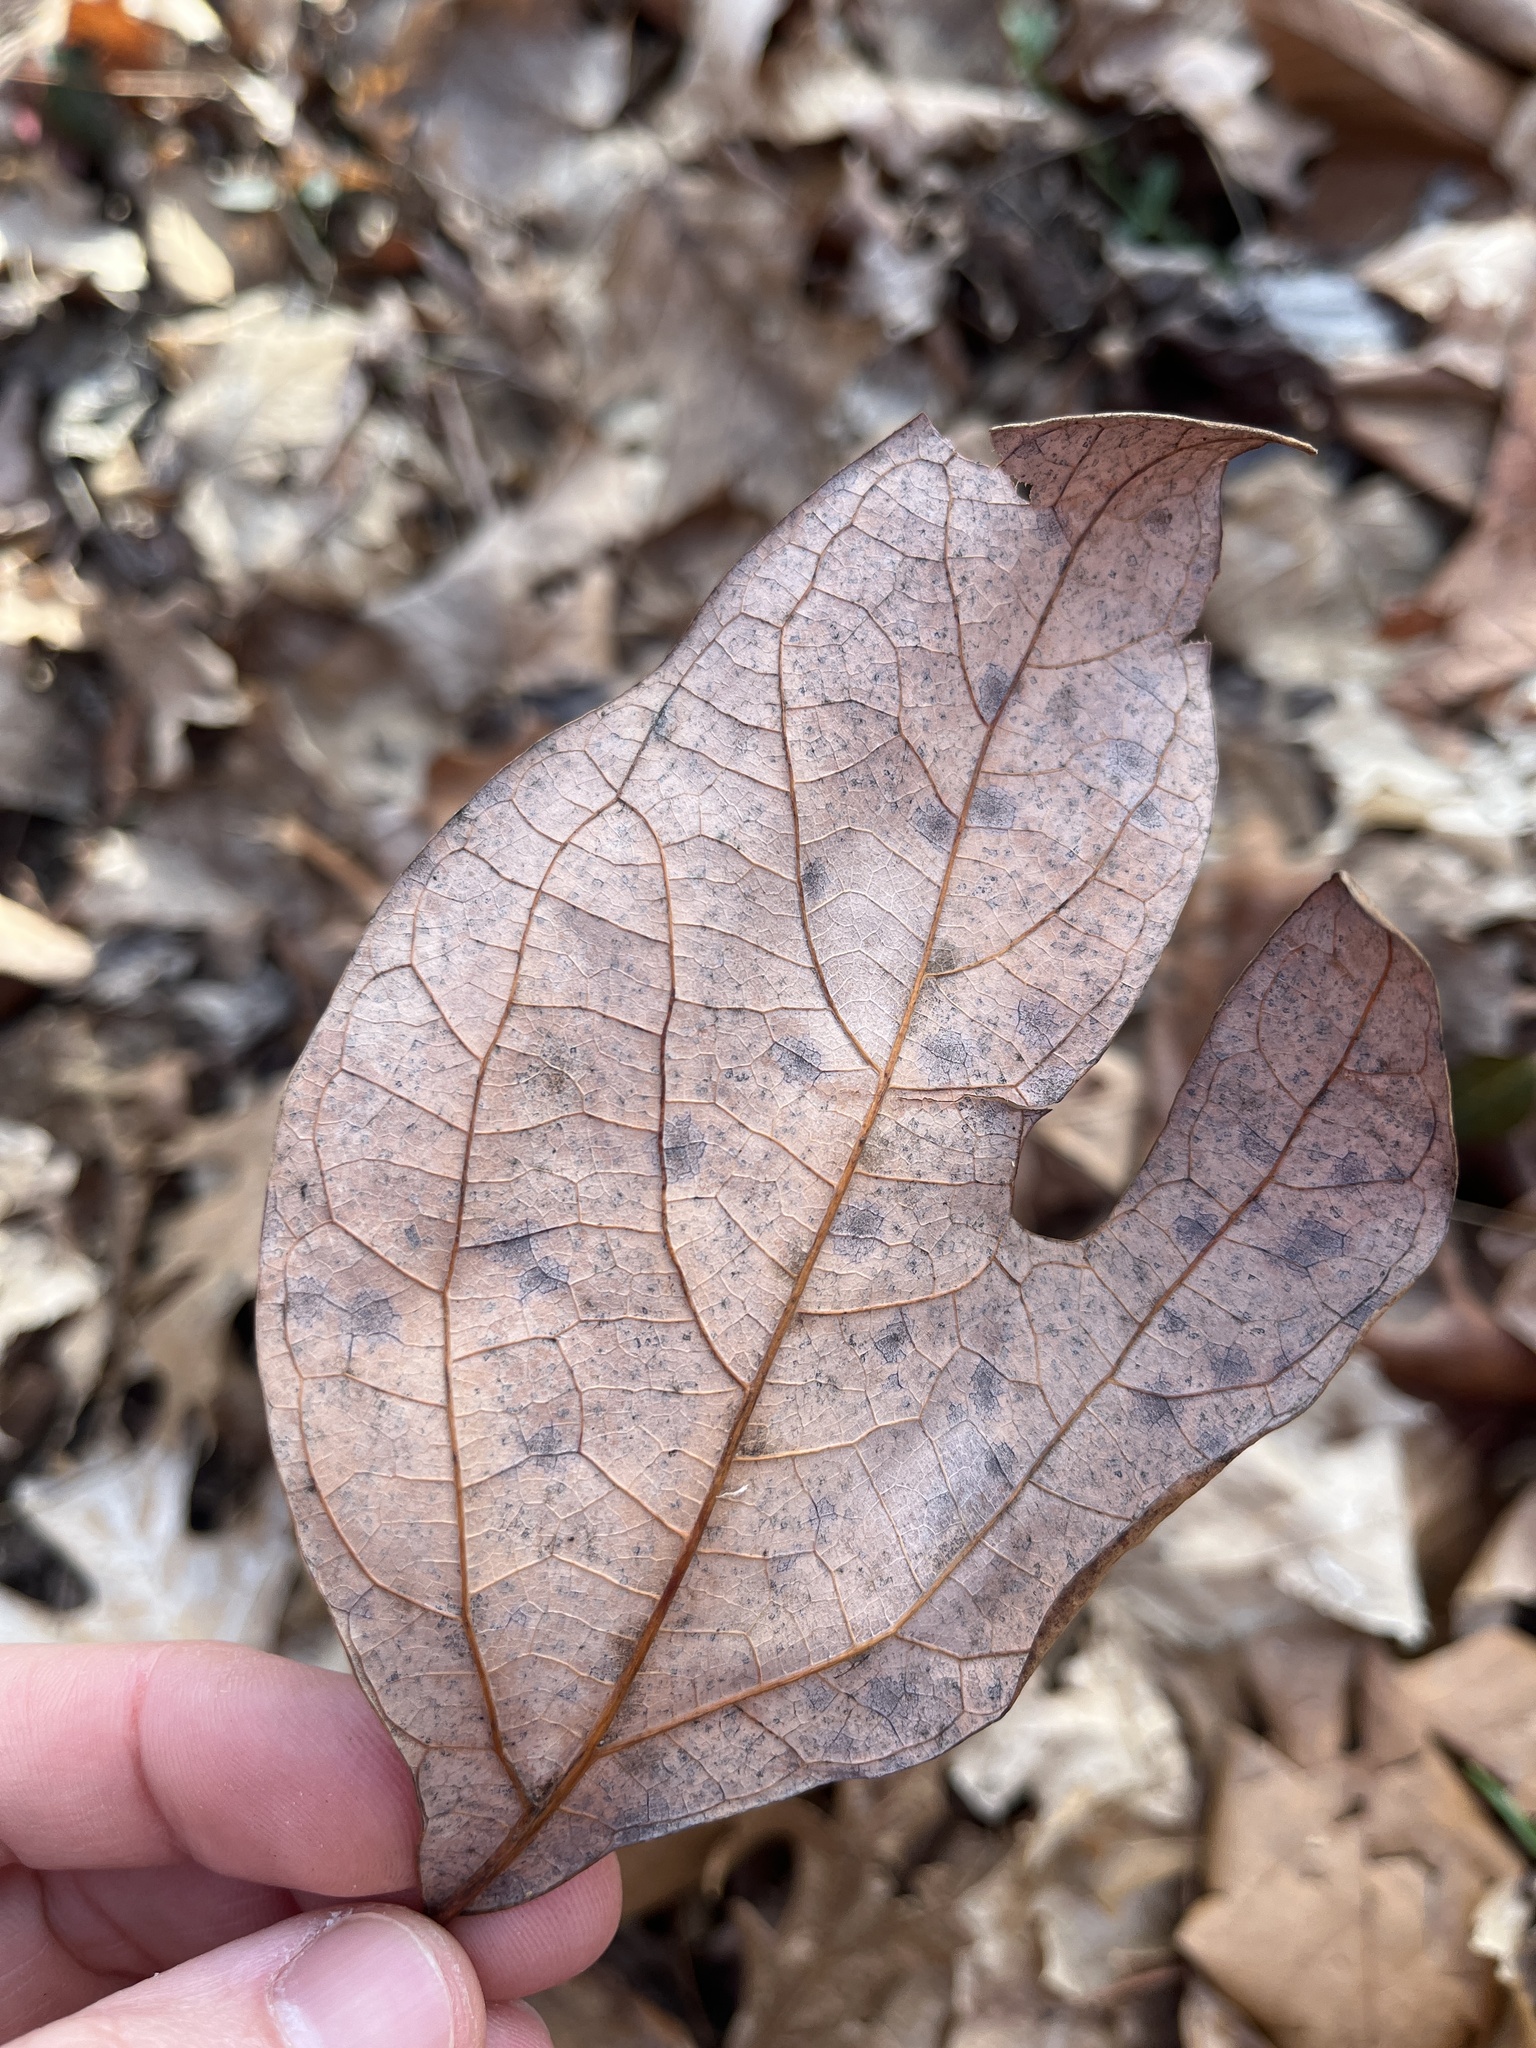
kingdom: Plantae
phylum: Tracheophyta
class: Magnoliopsida
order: Laurales
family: Lauraceae
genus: Sassafras
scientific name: Sassafras albidum
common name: Sassafras
